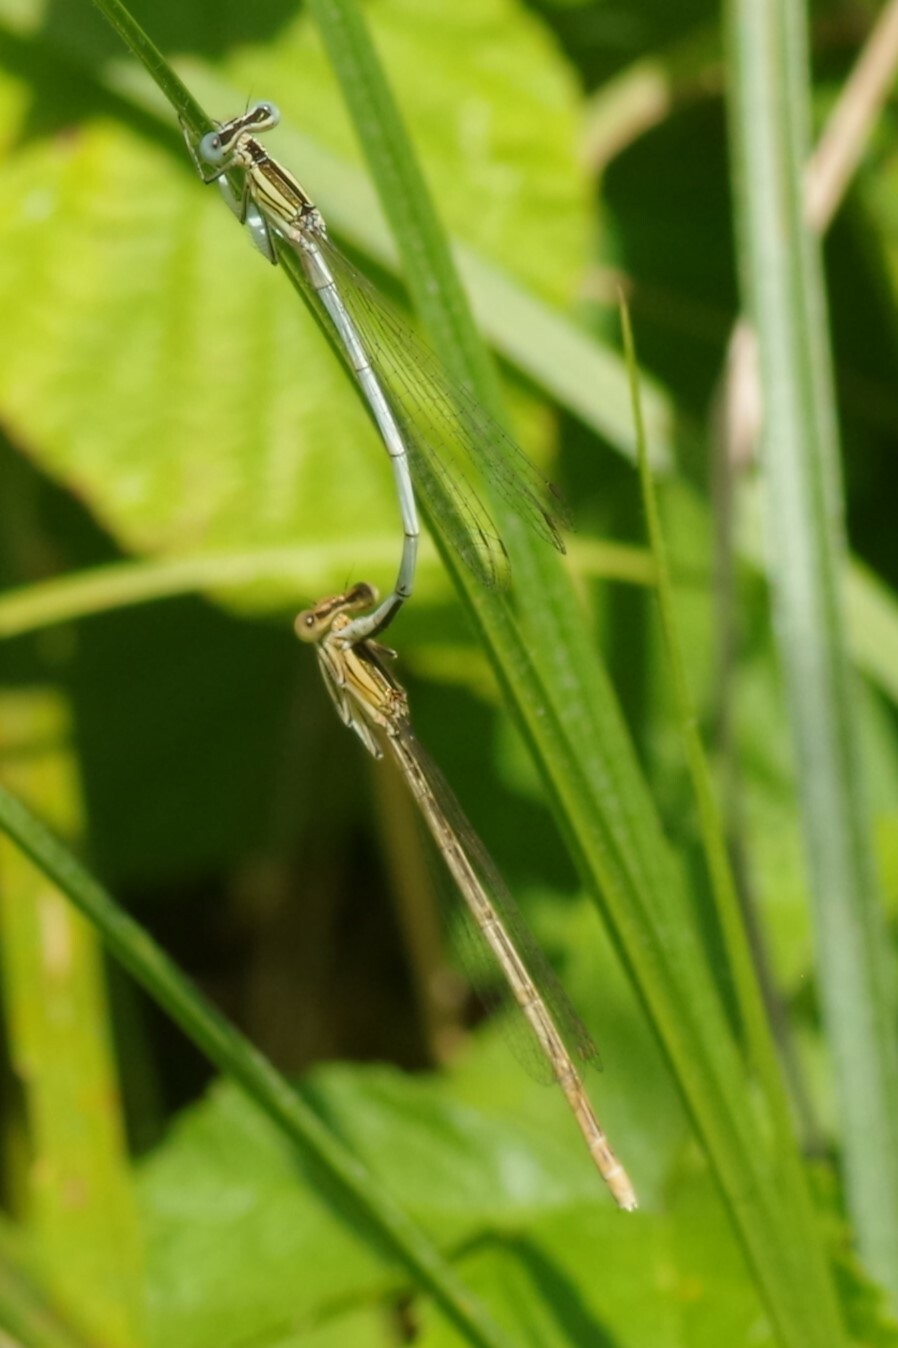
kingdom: Animalia
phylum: Arthropoda
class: Insecta
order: Odonata
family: Platycnemididae
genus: Platycnemis
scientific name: Platycnemis latipes
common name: White featherleg
